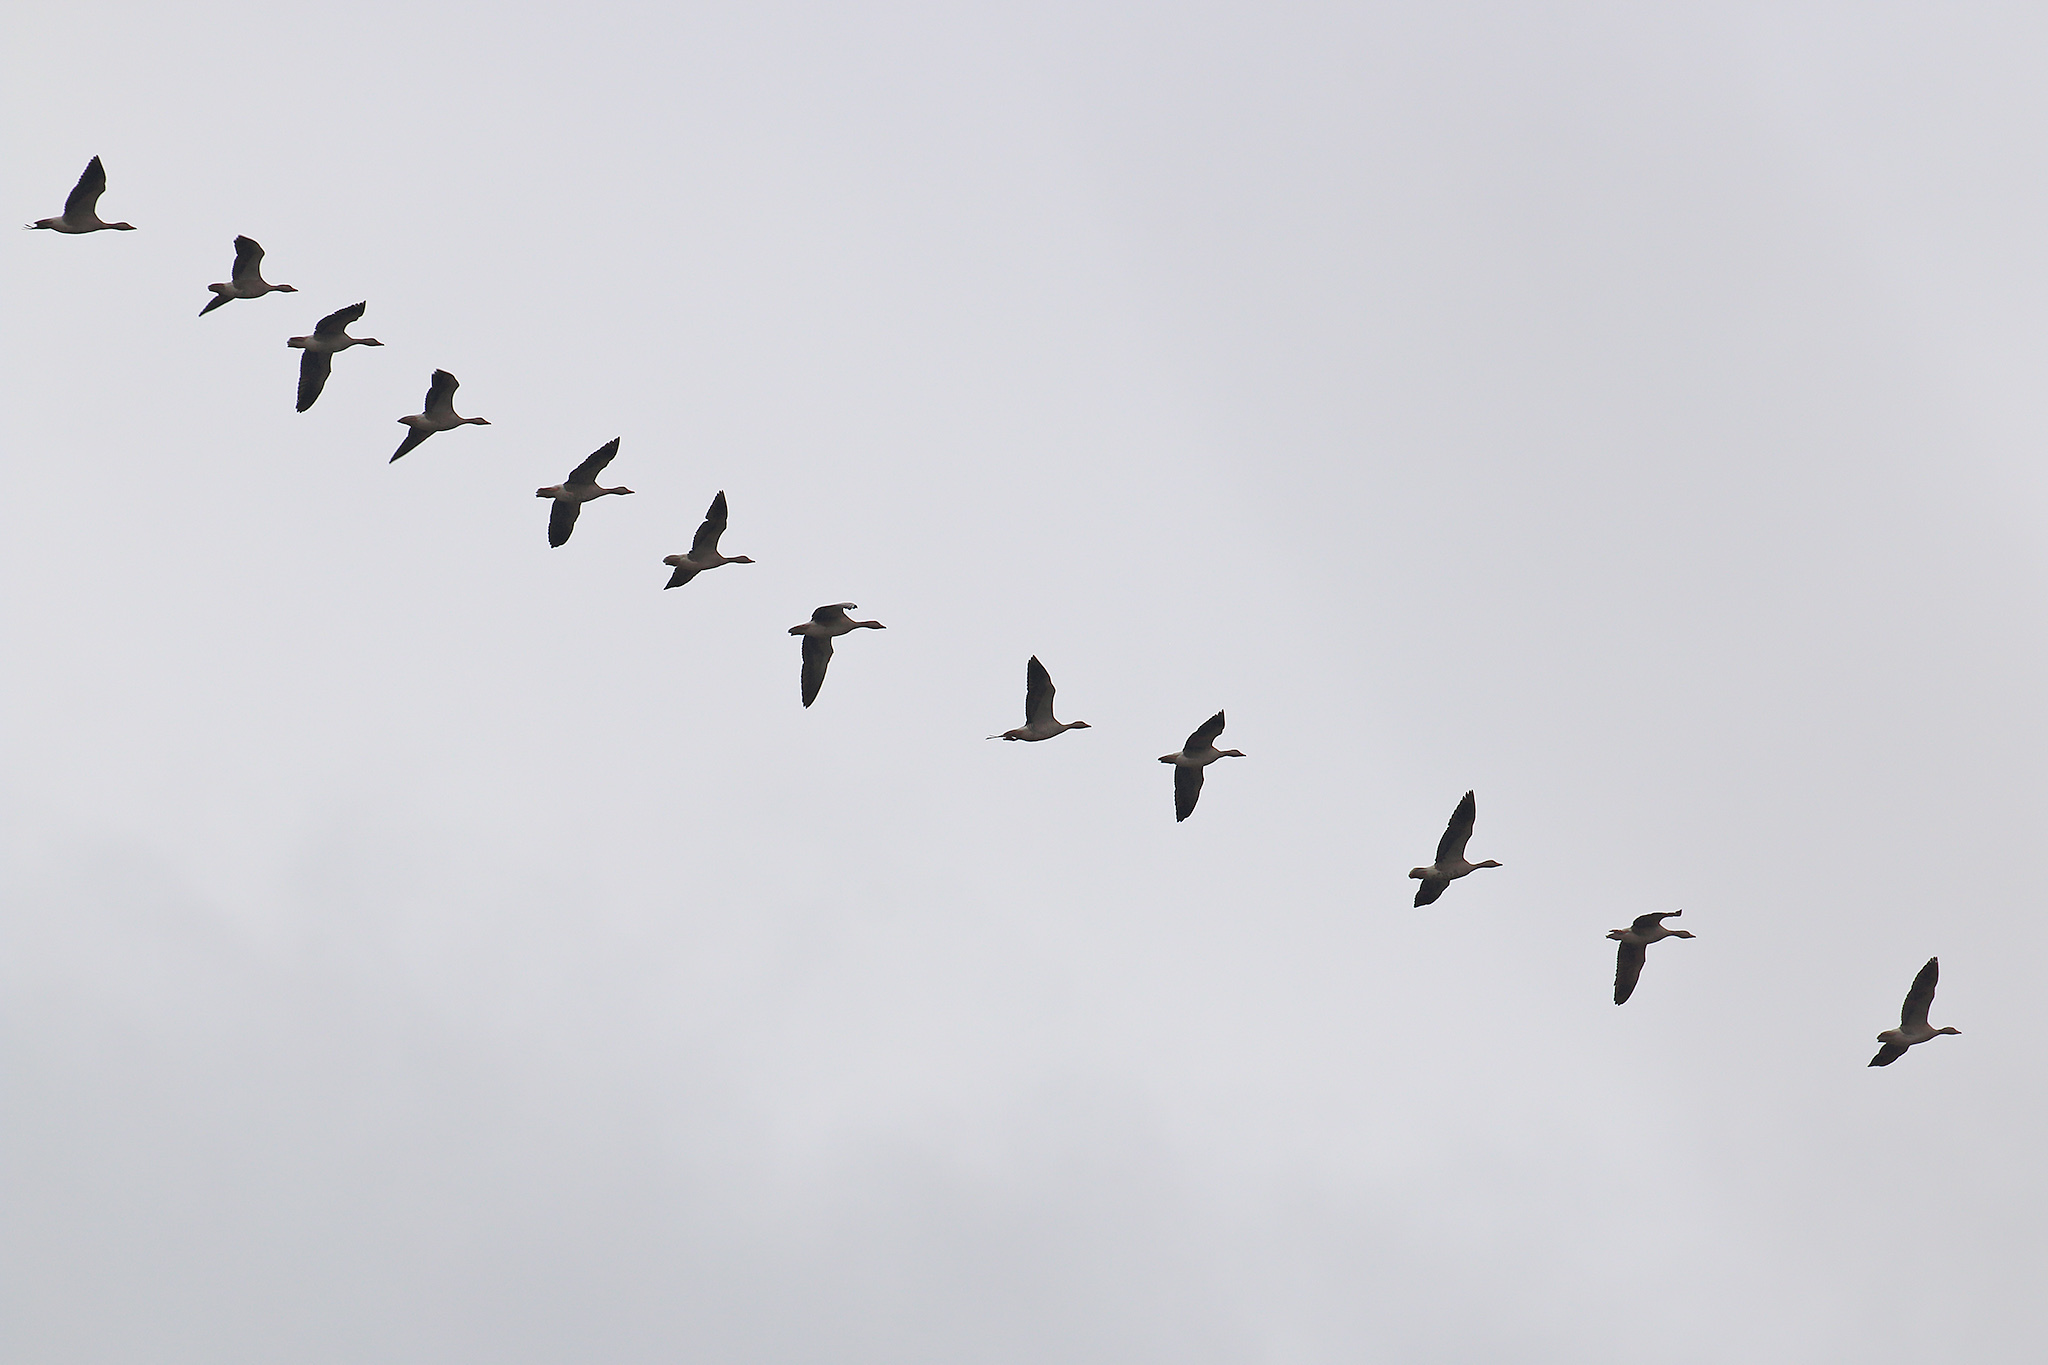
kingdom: Animalia
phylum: Chordata
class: Aves
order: Anseriformes
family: Anatidae
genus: Anser
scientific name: Anser anser
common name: Greylag goose
